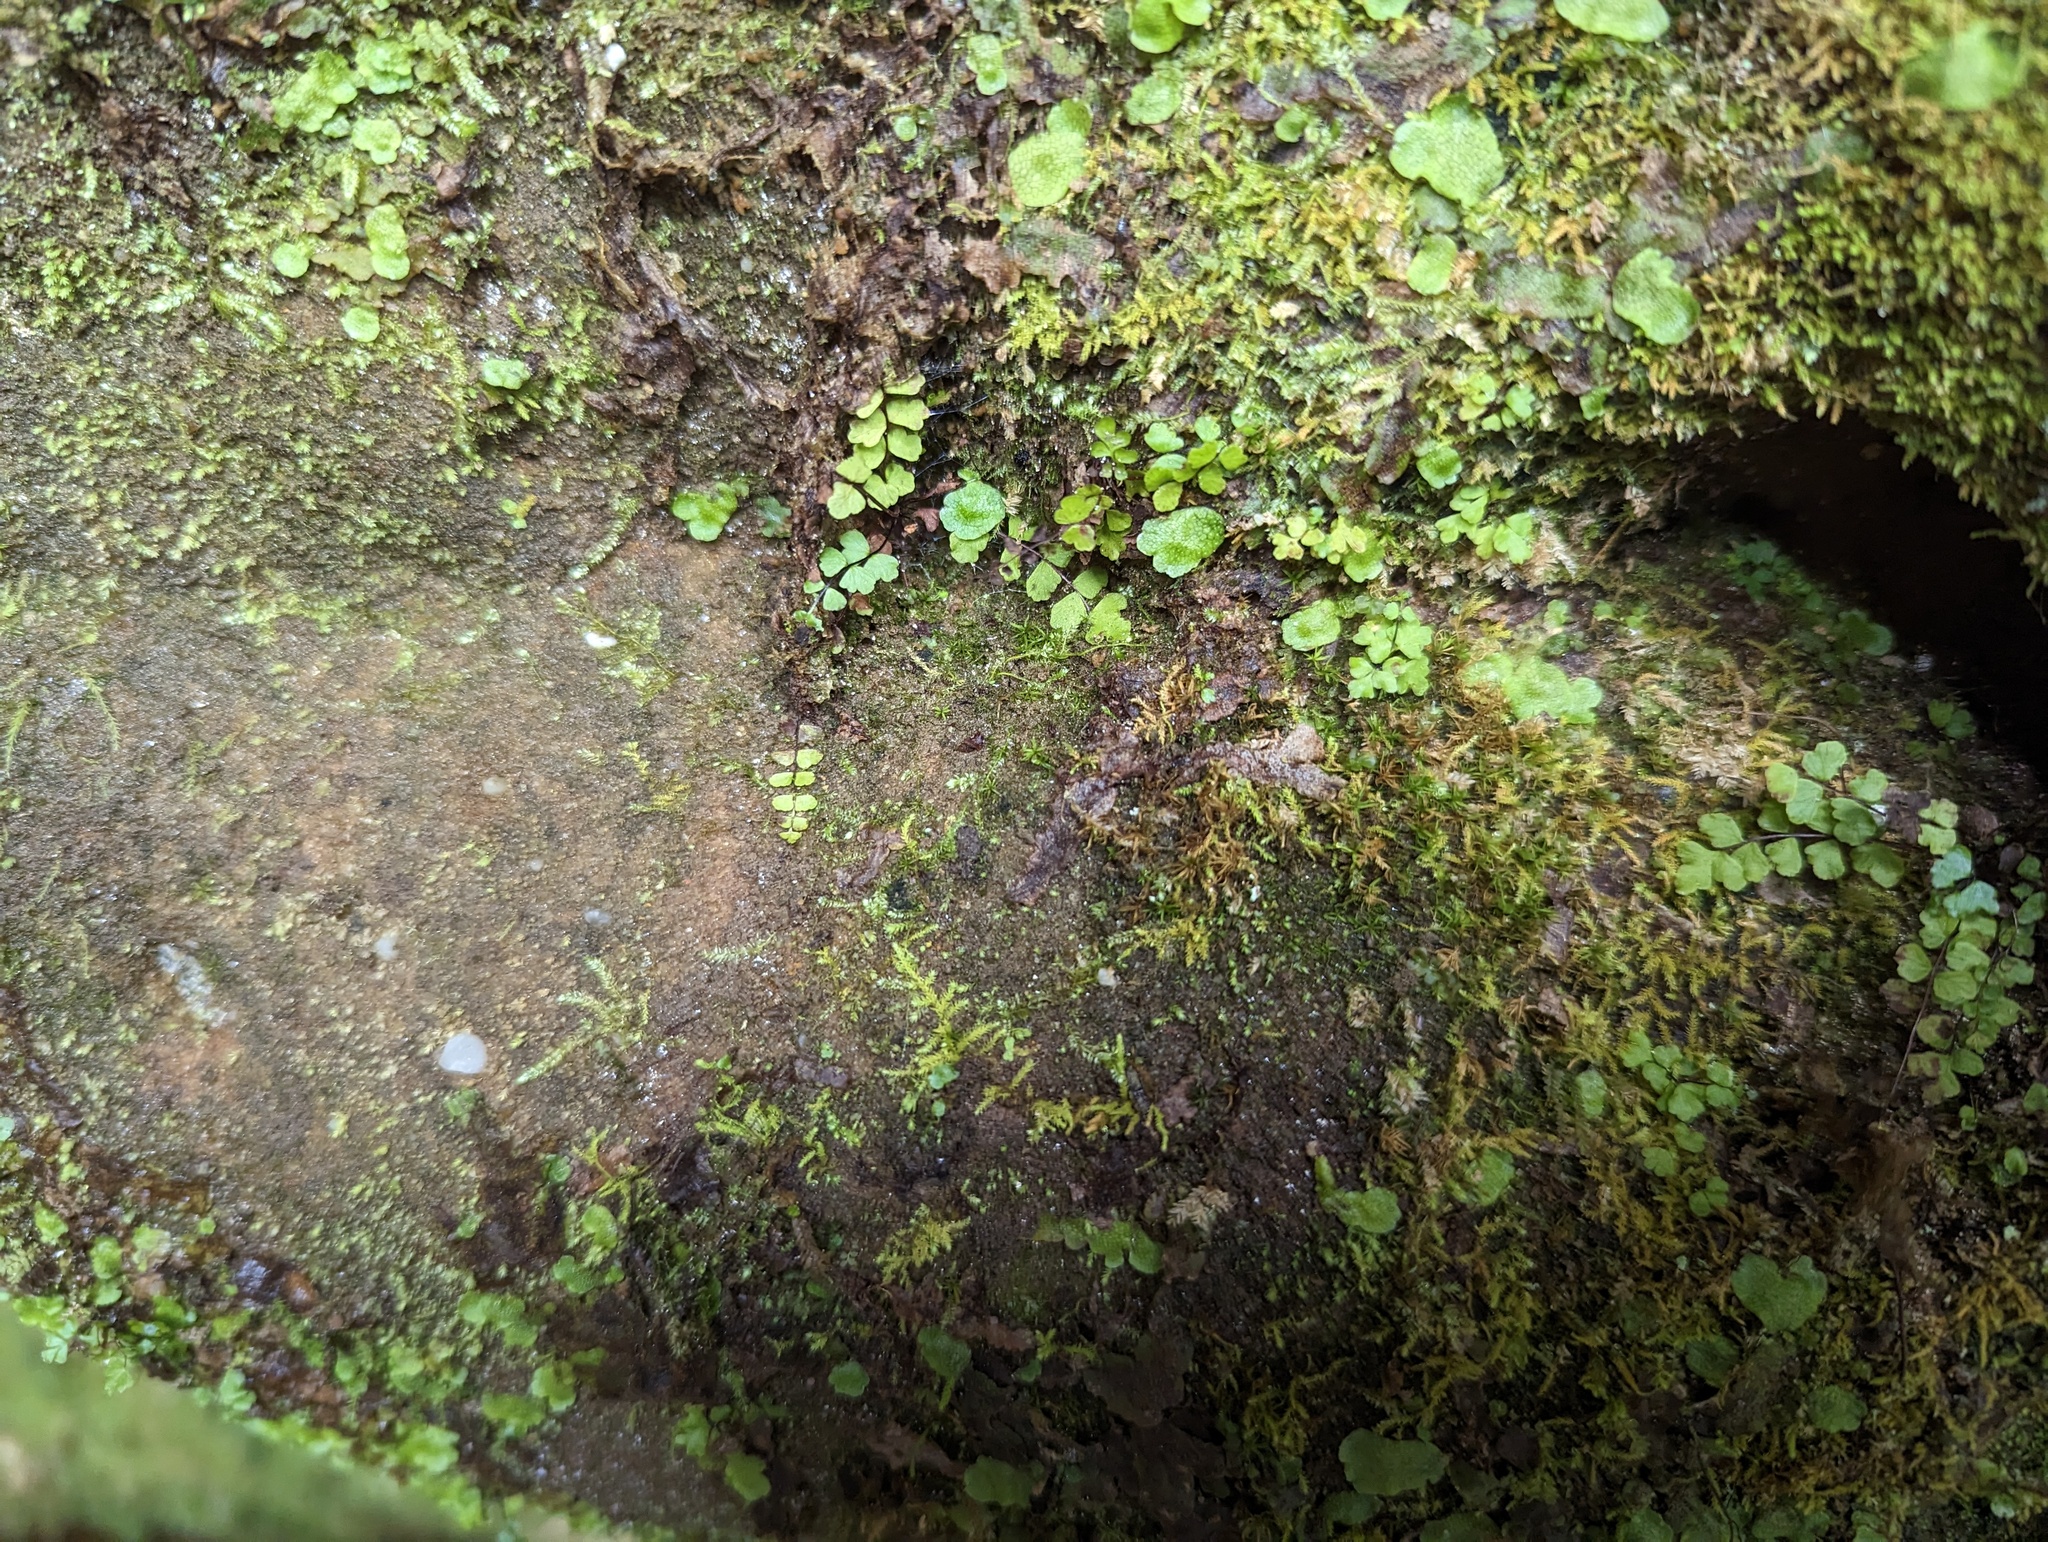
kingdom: Plantae
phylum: Tracheophyta
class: Polypodiopsida
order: Polypodiales
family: Aspleniaceae
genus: Asplenium
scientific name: Asplenium trichomanes
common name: Maidenhair spleenwort
